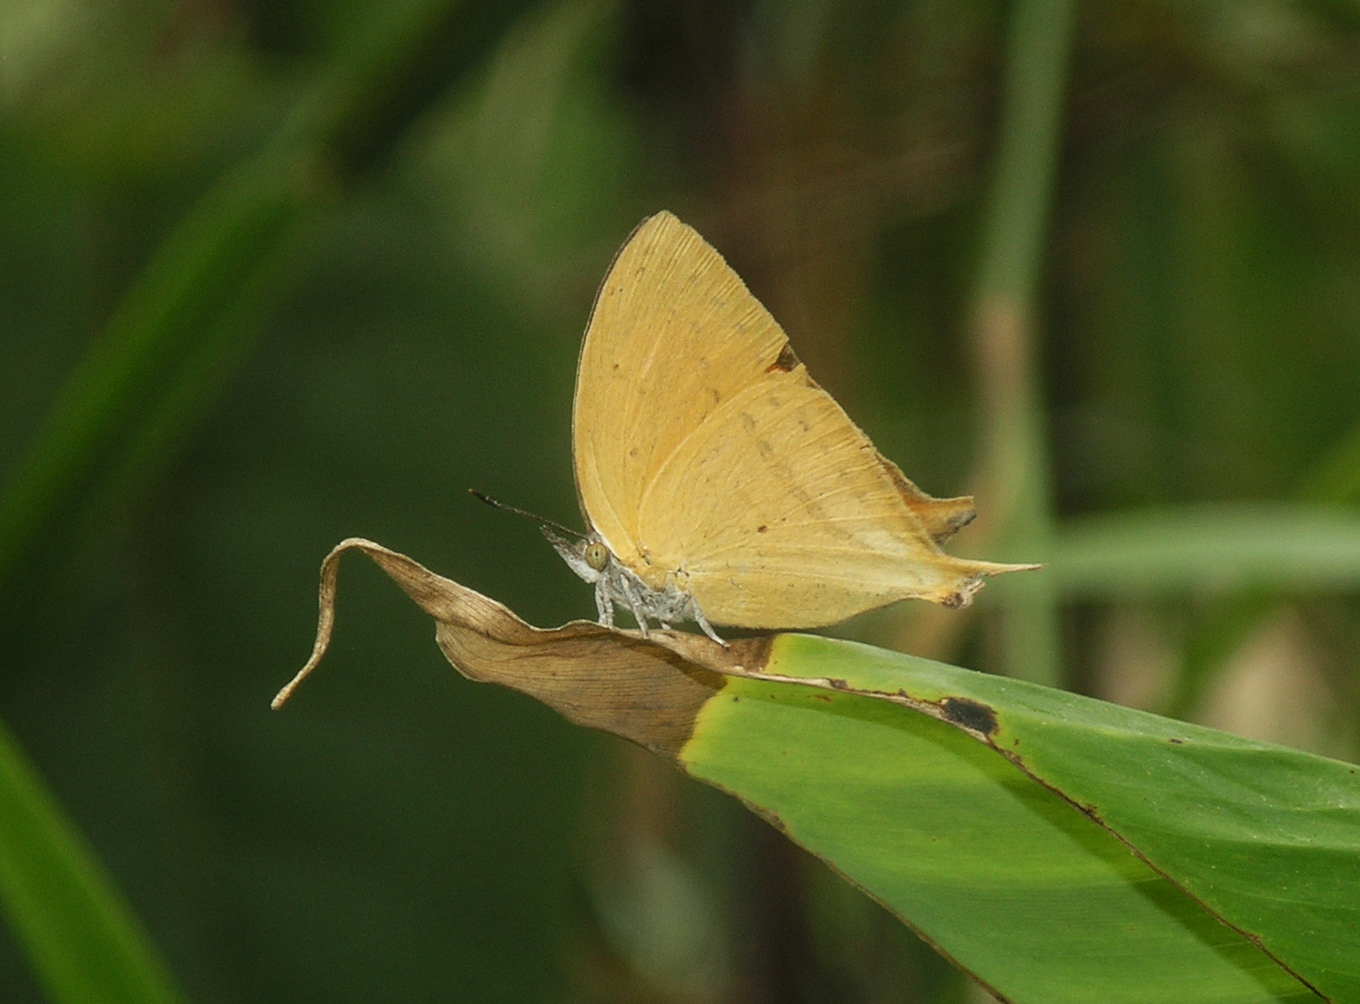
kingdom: Animalia
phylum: Arthropoda
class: Insecta
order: Lepidoptera
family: Lycaenidae
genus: Loxura
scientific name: Loxura atymnus
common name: Common yamfly
